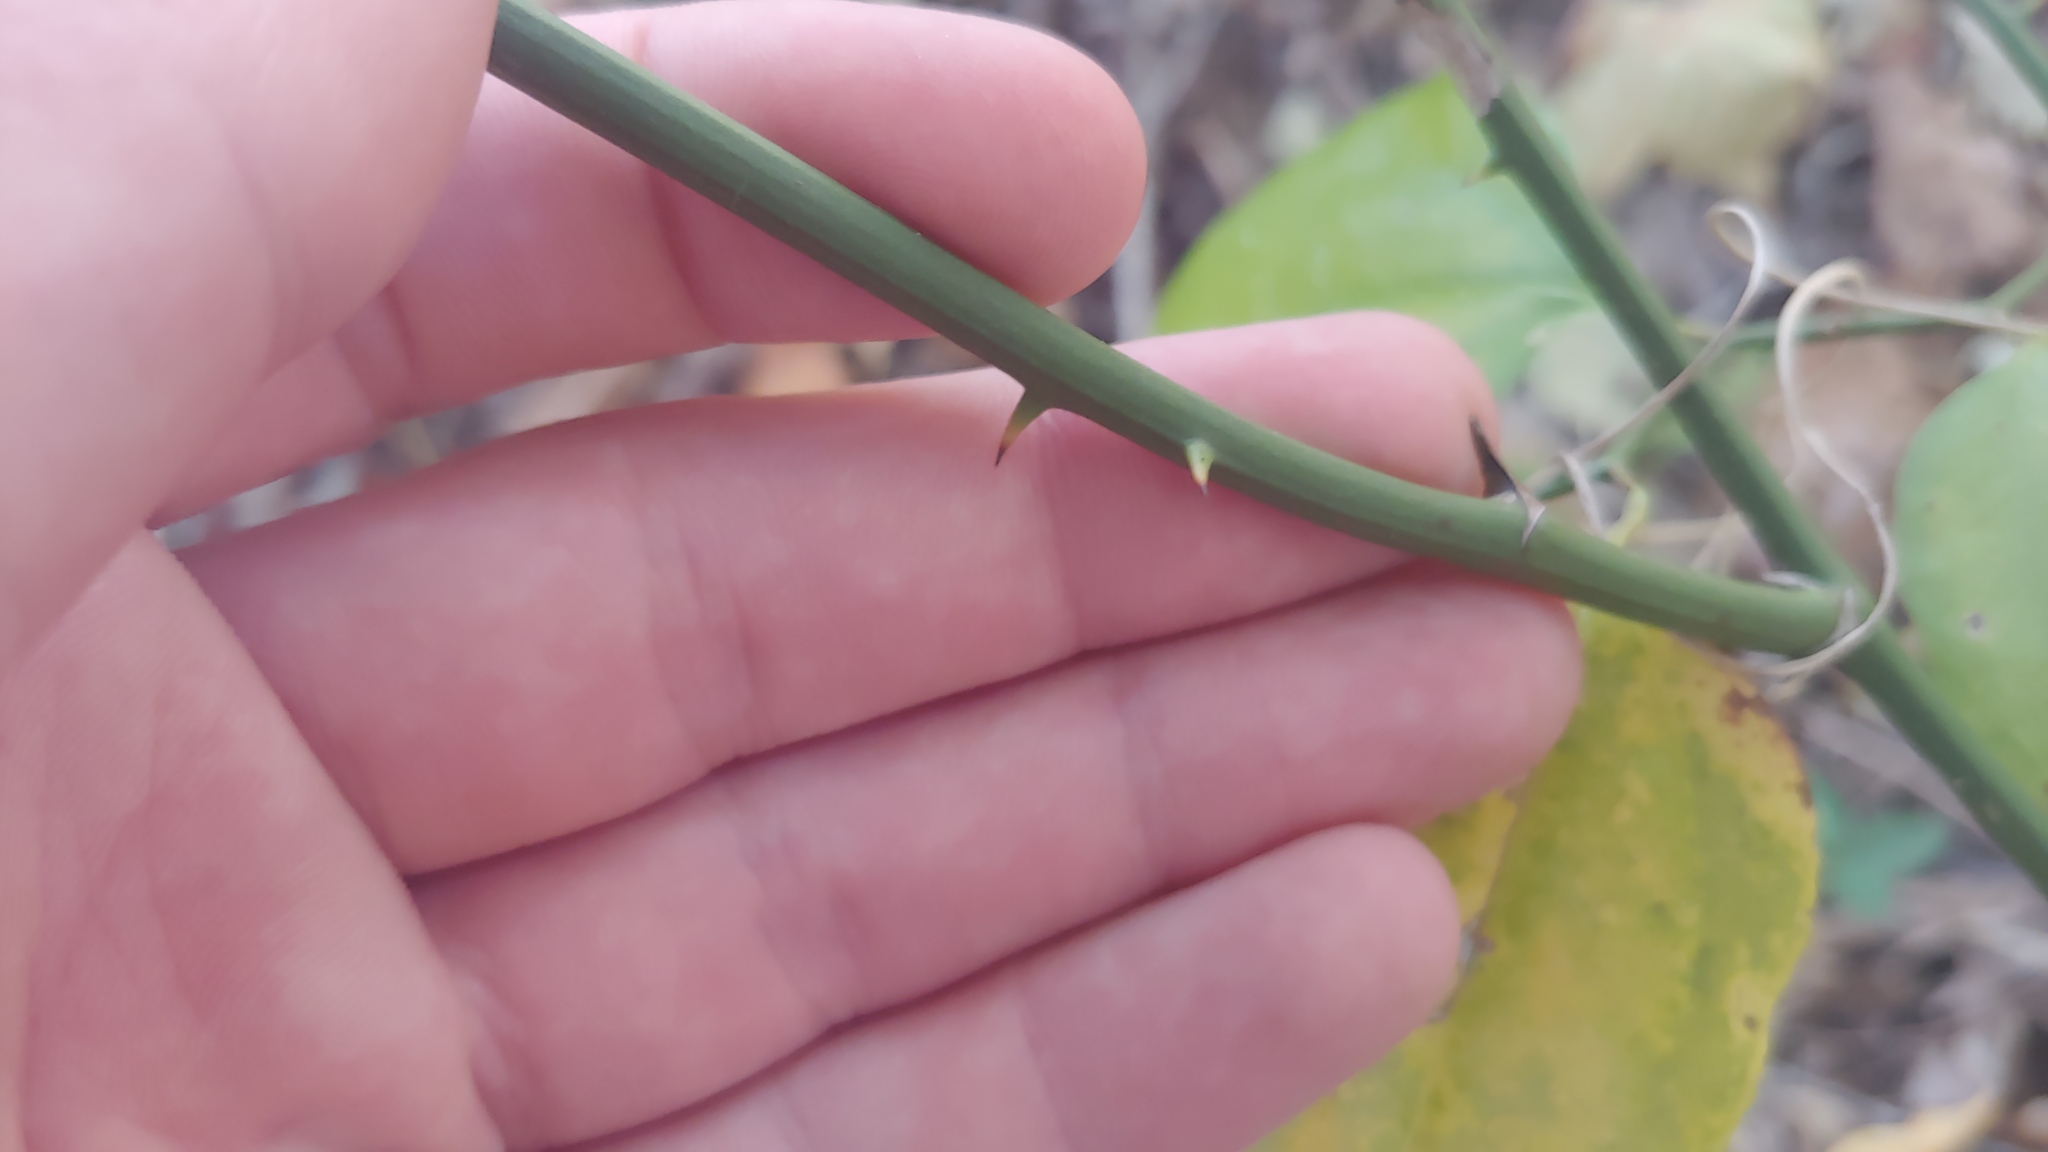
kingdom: Plantae
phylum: Tracheophyta
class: Liliopsida
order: Liliales
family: Smilacaceae
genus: Smilax
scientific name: Smilax rotundifolia
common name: Bullbriar
